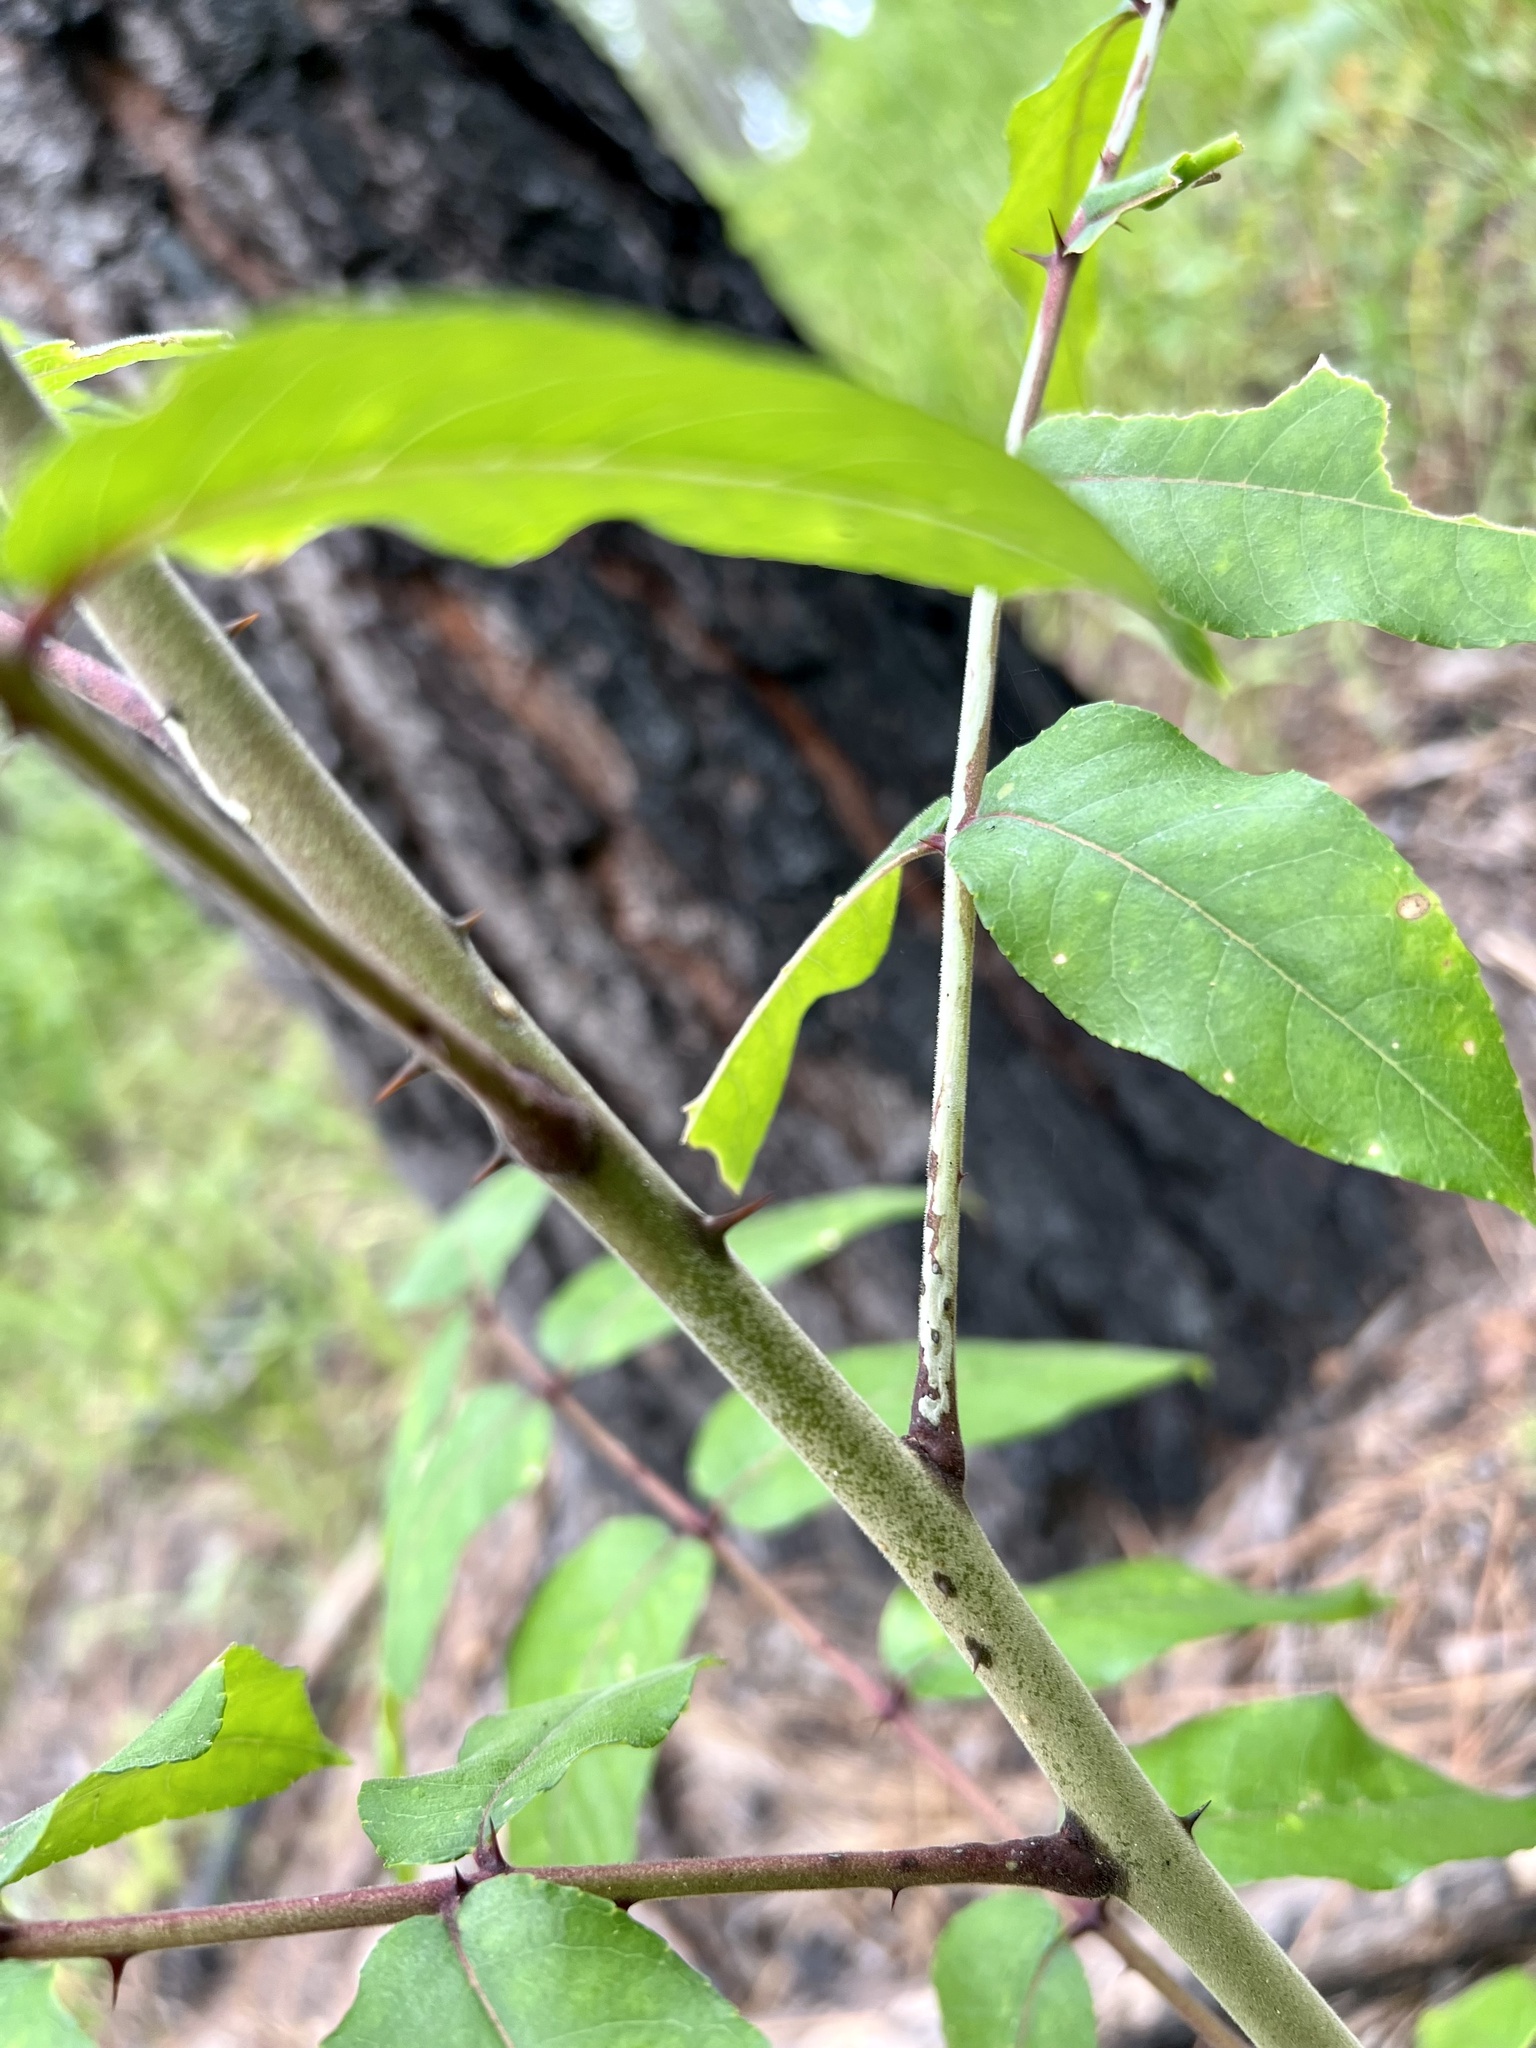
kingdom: Plantae
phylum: Tracheophyta
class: Magnoliopsida
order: Sapindales
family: Rutaceae
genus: Zanthoxylum
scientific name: Zanthoxylum clava-herculis
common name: Hercules'-club
